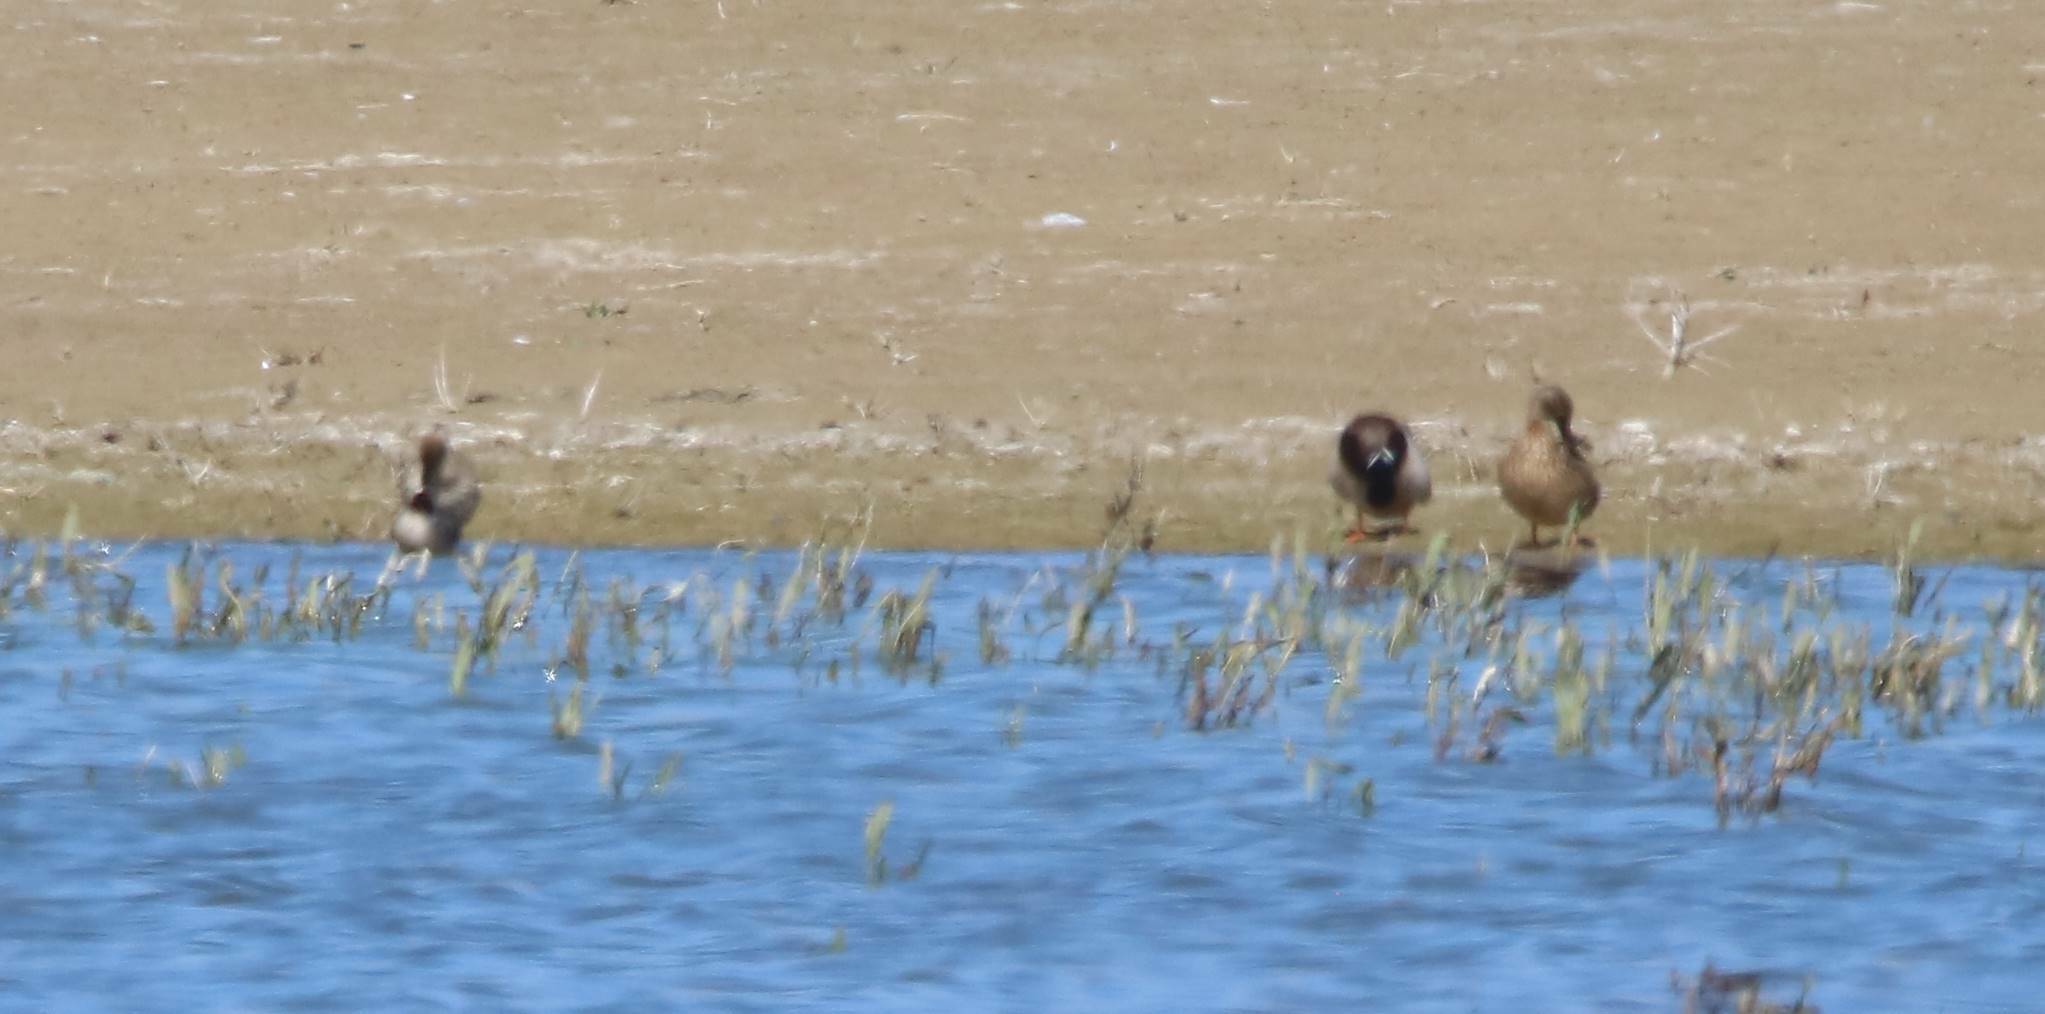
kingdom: Animalia
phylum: Chordata
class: Aves
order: Anseriformes
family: Anatidae
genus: Anas
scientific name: Anas platyrhynchos
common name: Mallard
